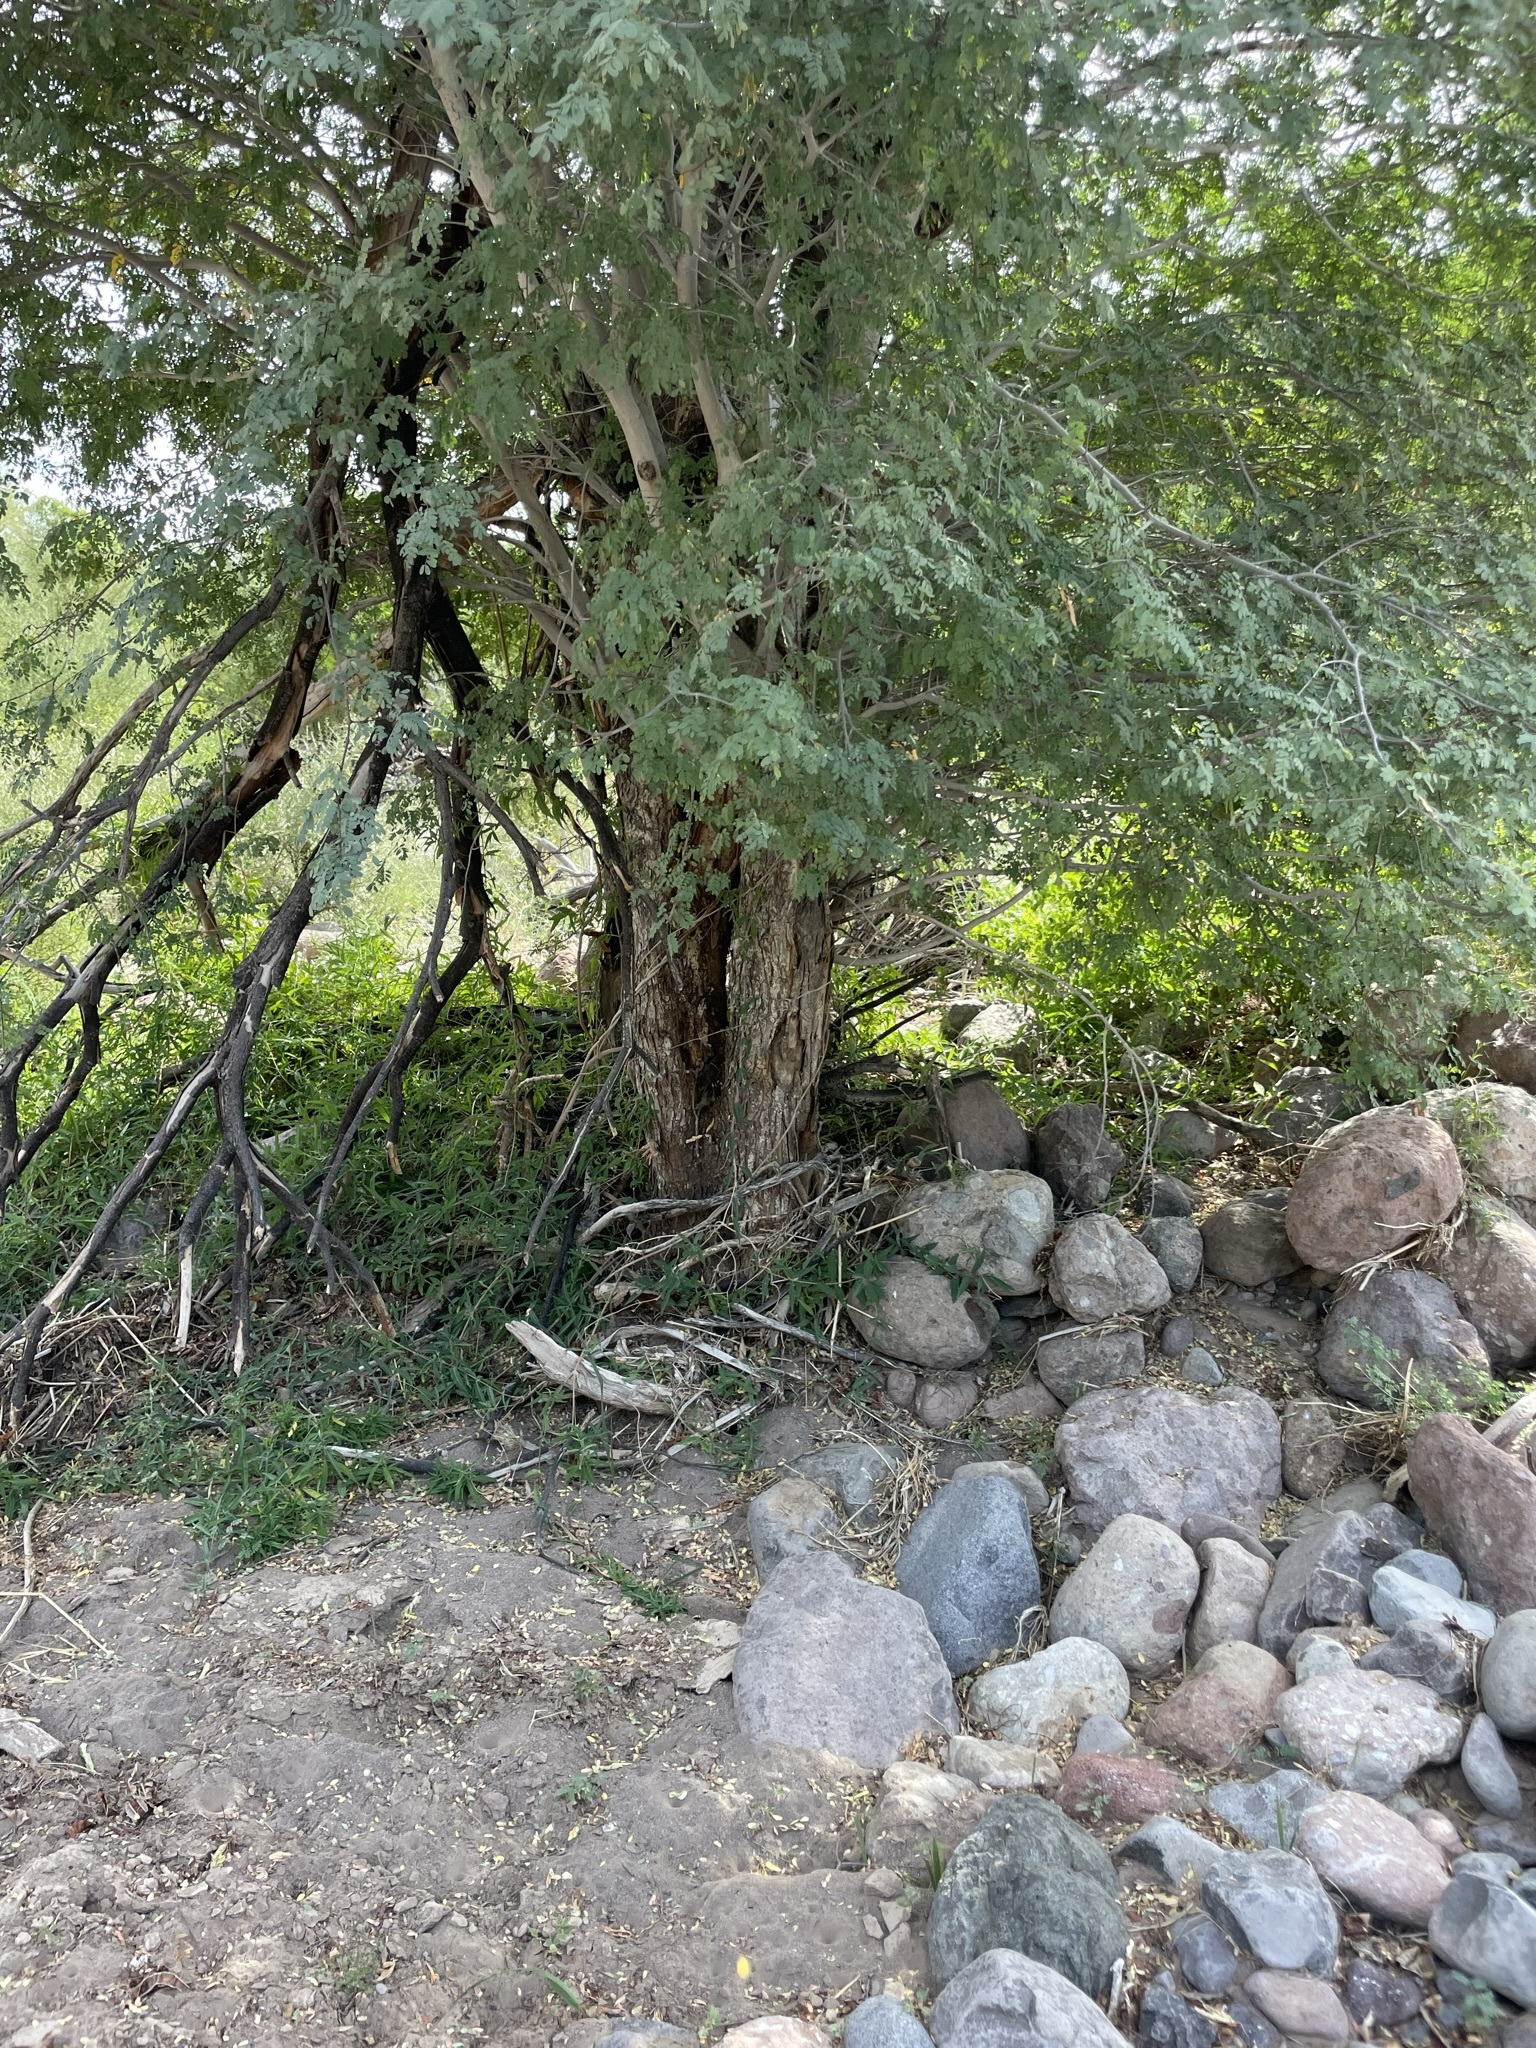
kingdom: Plantae
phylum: Tracheophyta
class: Magnoliopsida
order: Fabales
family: Fabaceae
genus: Lysiloma
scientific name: Lysiloma candidum
